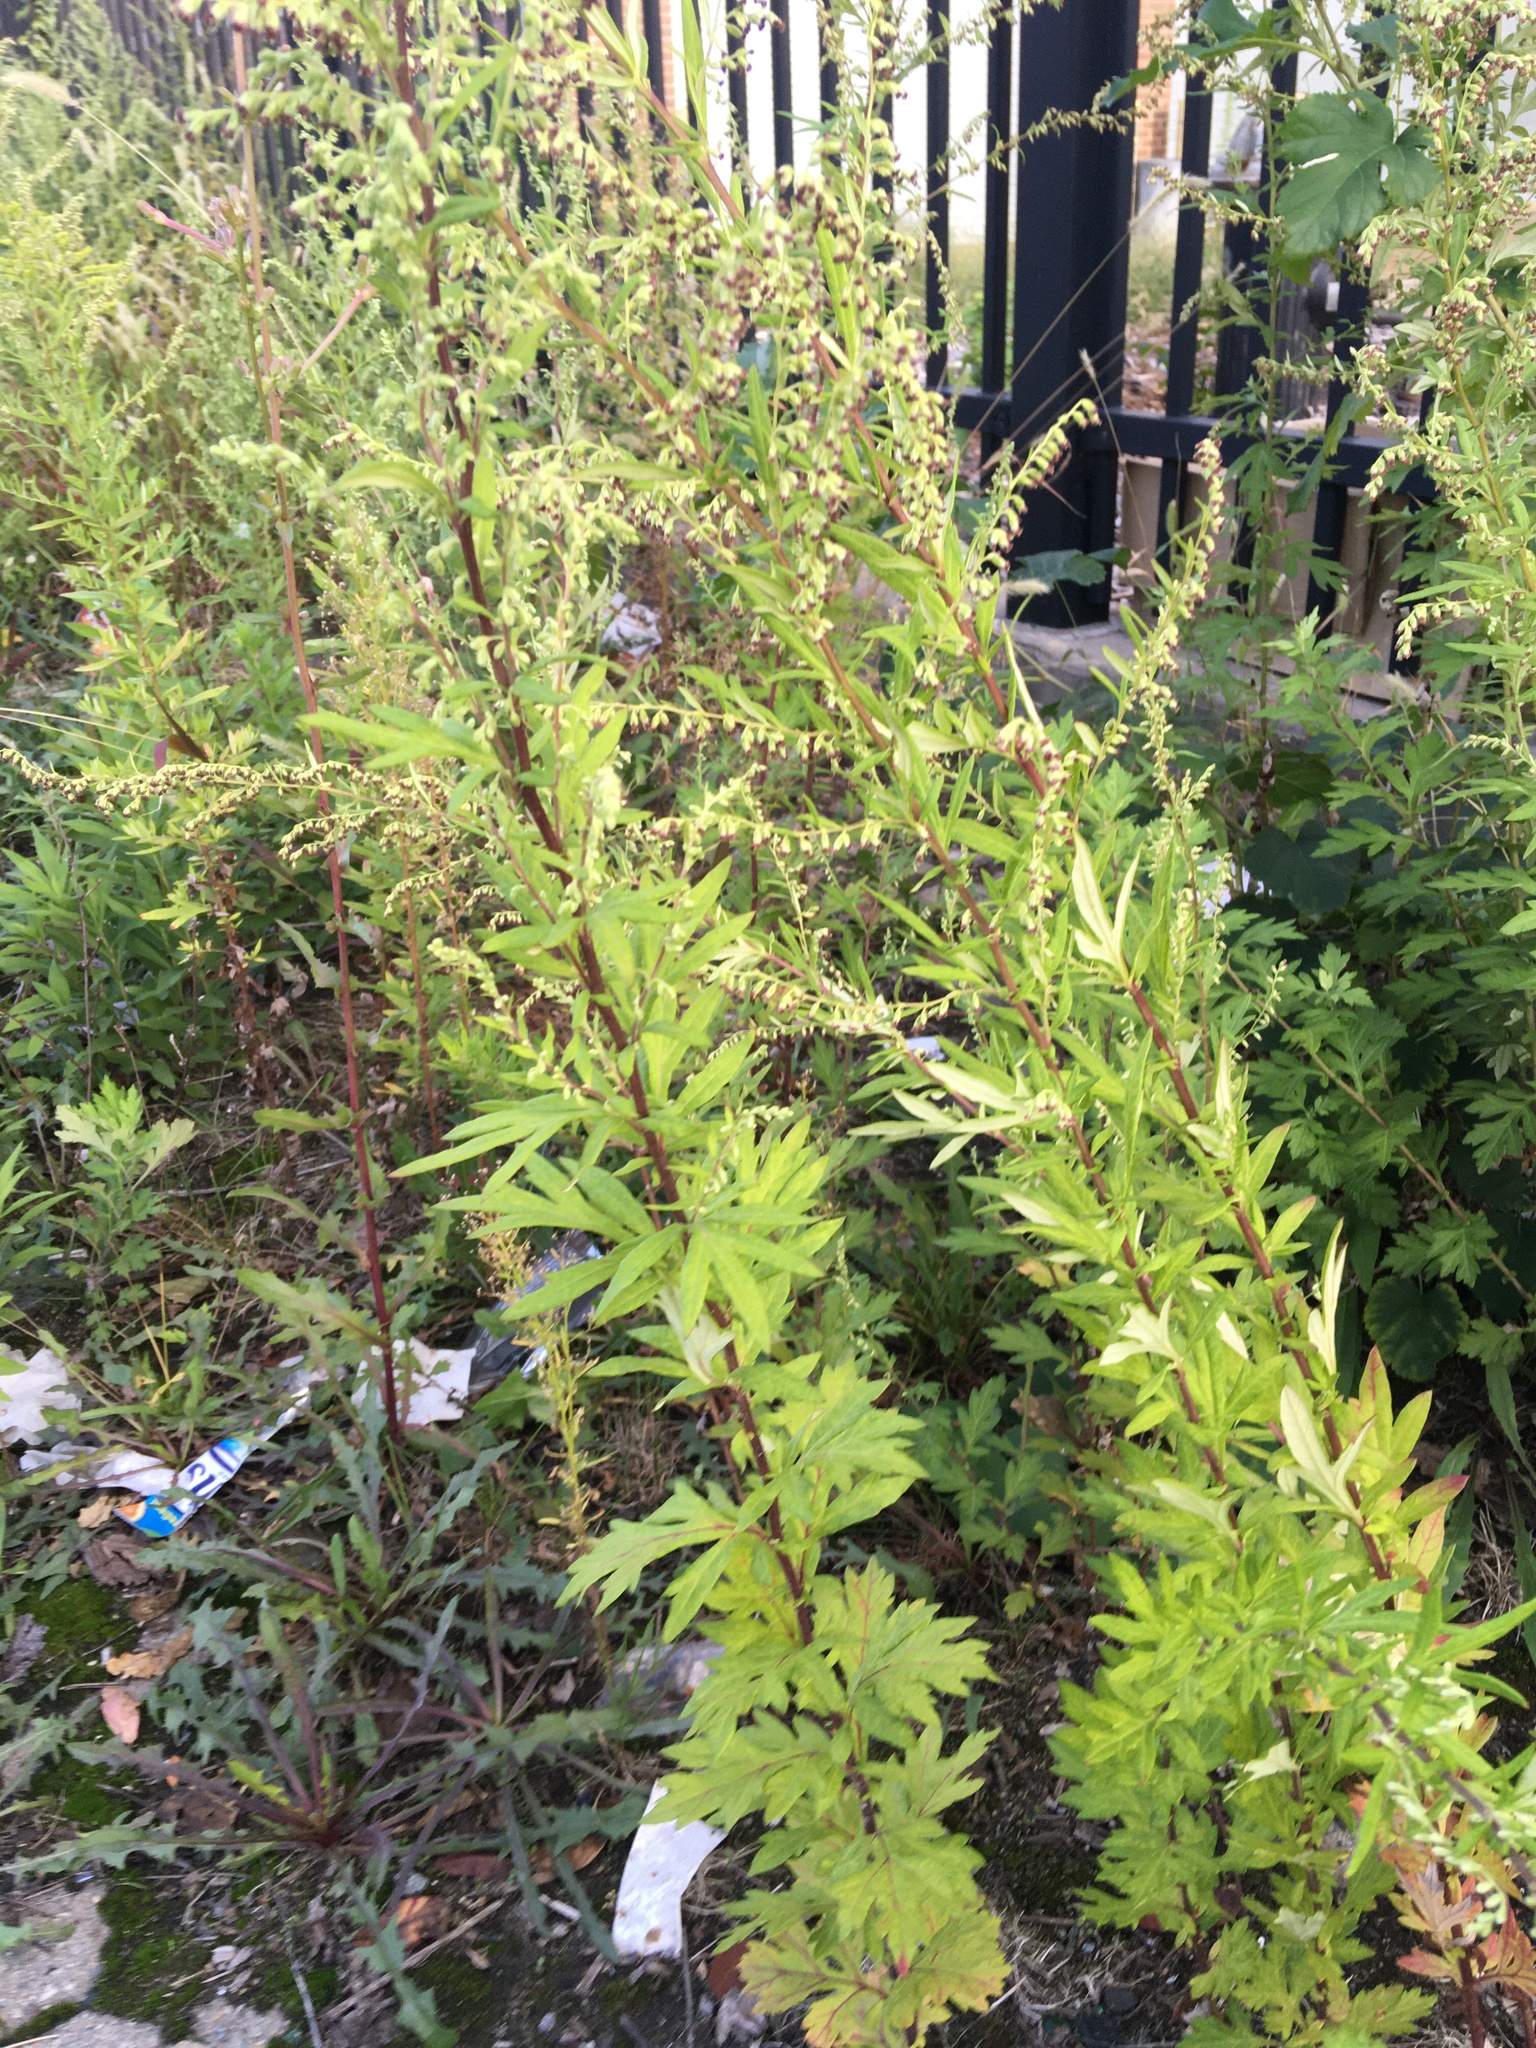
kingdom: Plantae
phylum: Tracheophyta
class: Magnoliopsida
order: Asterales
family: Asteraceae
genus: Artemisia
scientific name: Artemisia vulgaris
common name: Mugwort
